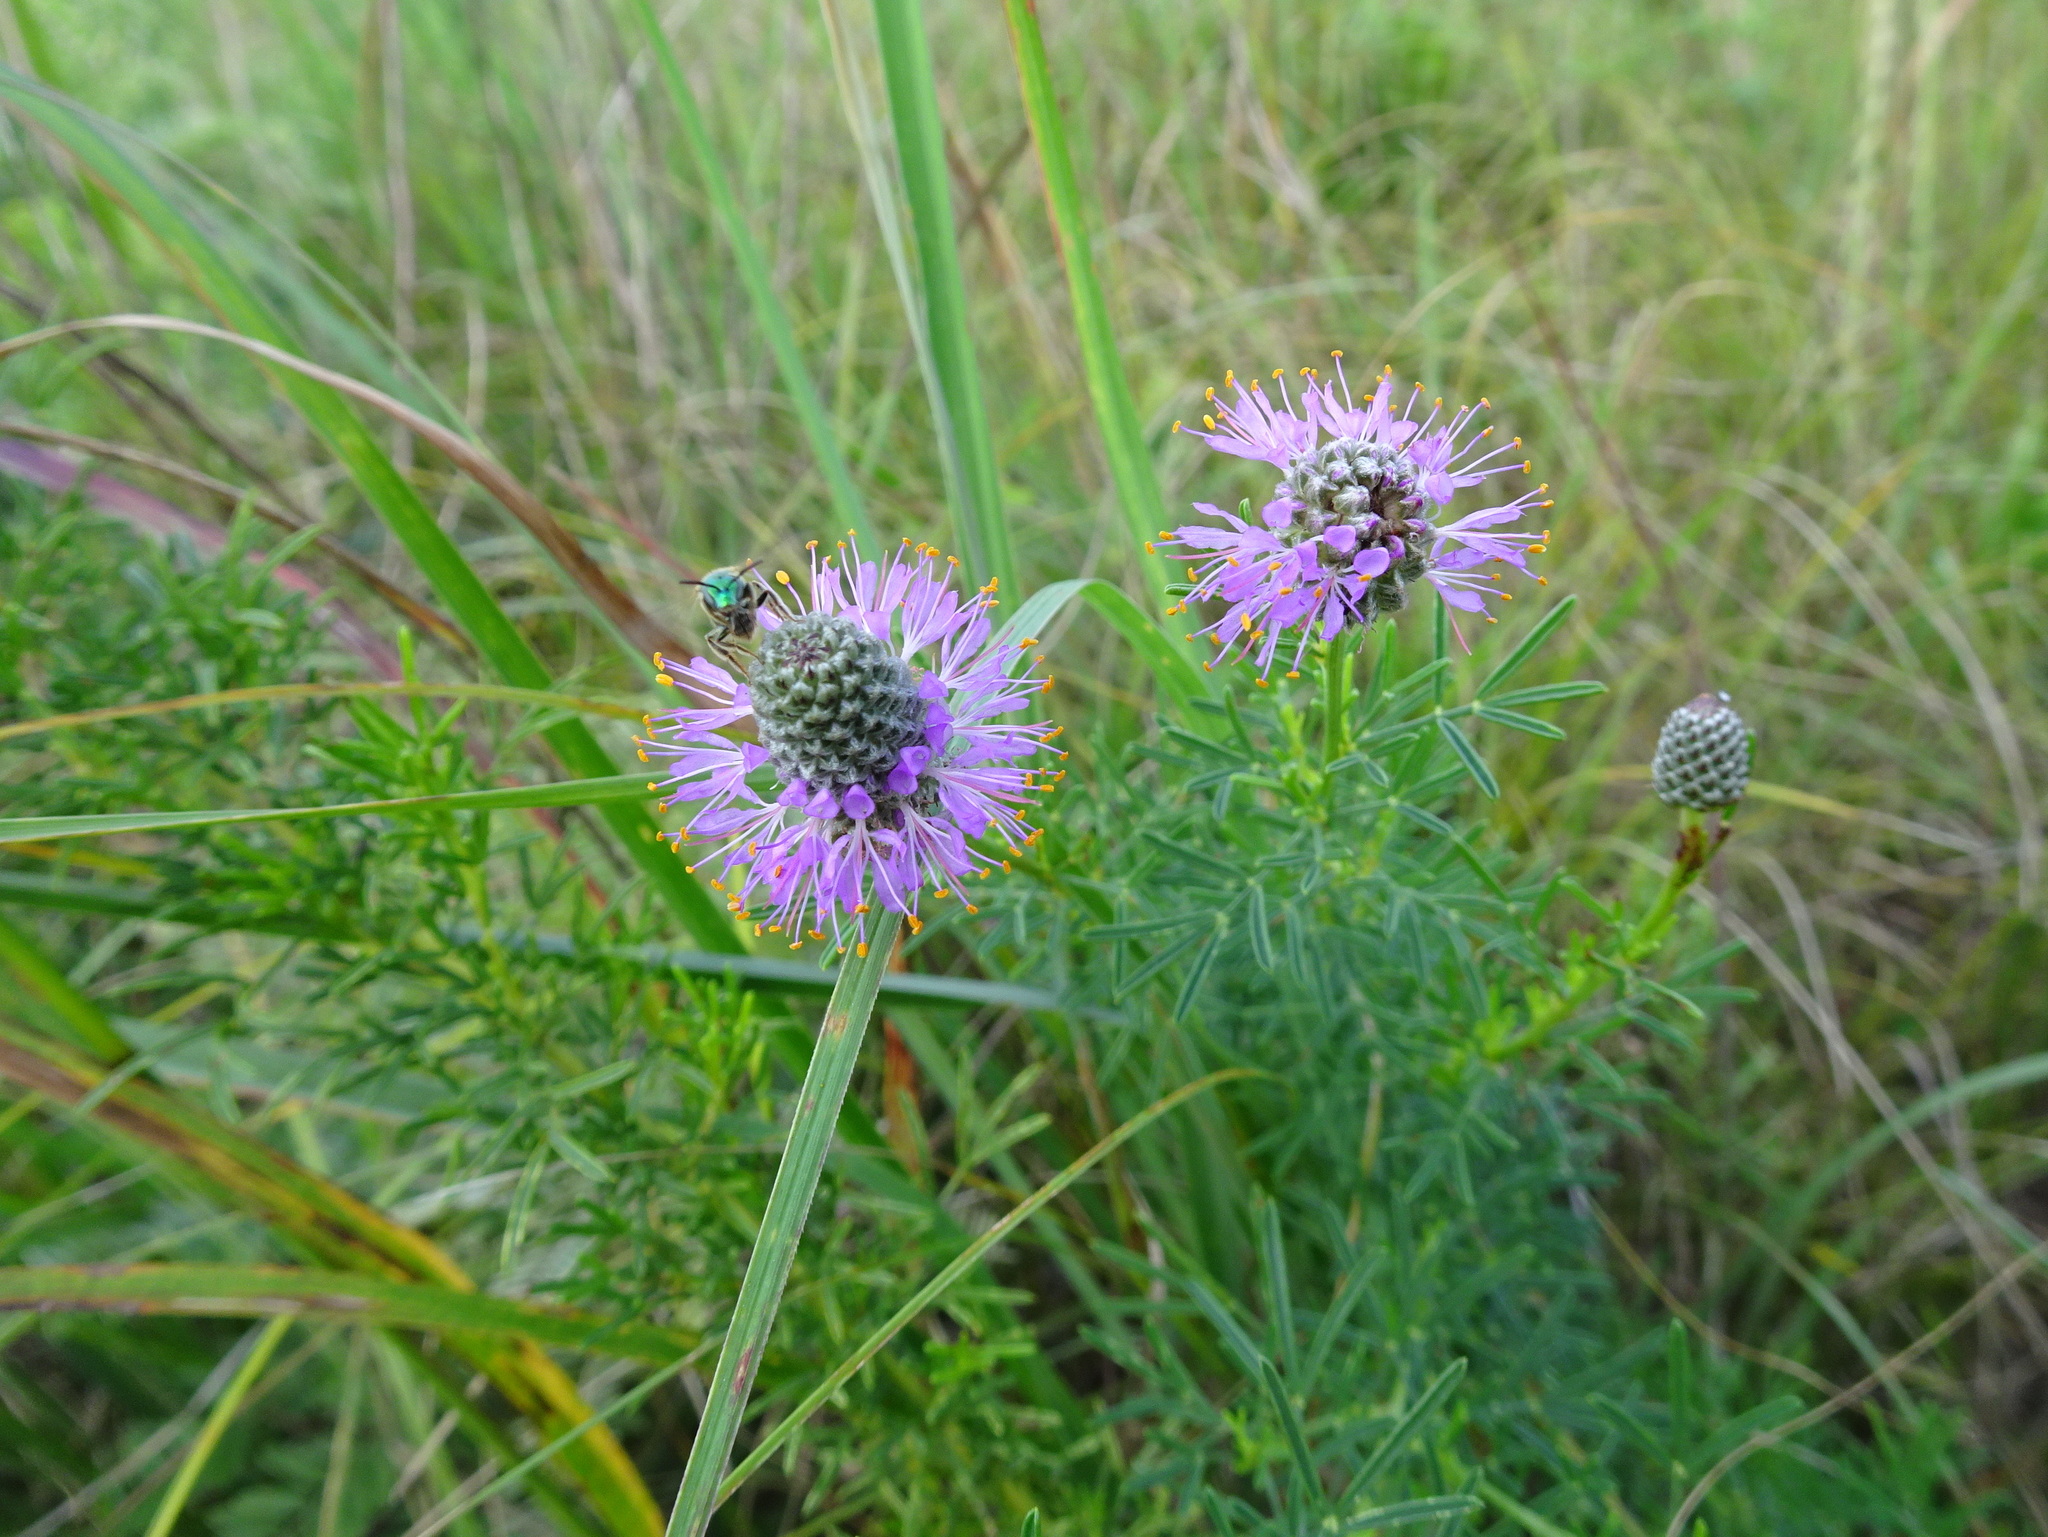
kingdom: Plantae
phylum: Tracheophyta
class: Magnoliopsida
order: Fabales
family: Fabaceae
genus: Dalea
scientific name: Dalea purpurea
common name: Purple prairie-clover
